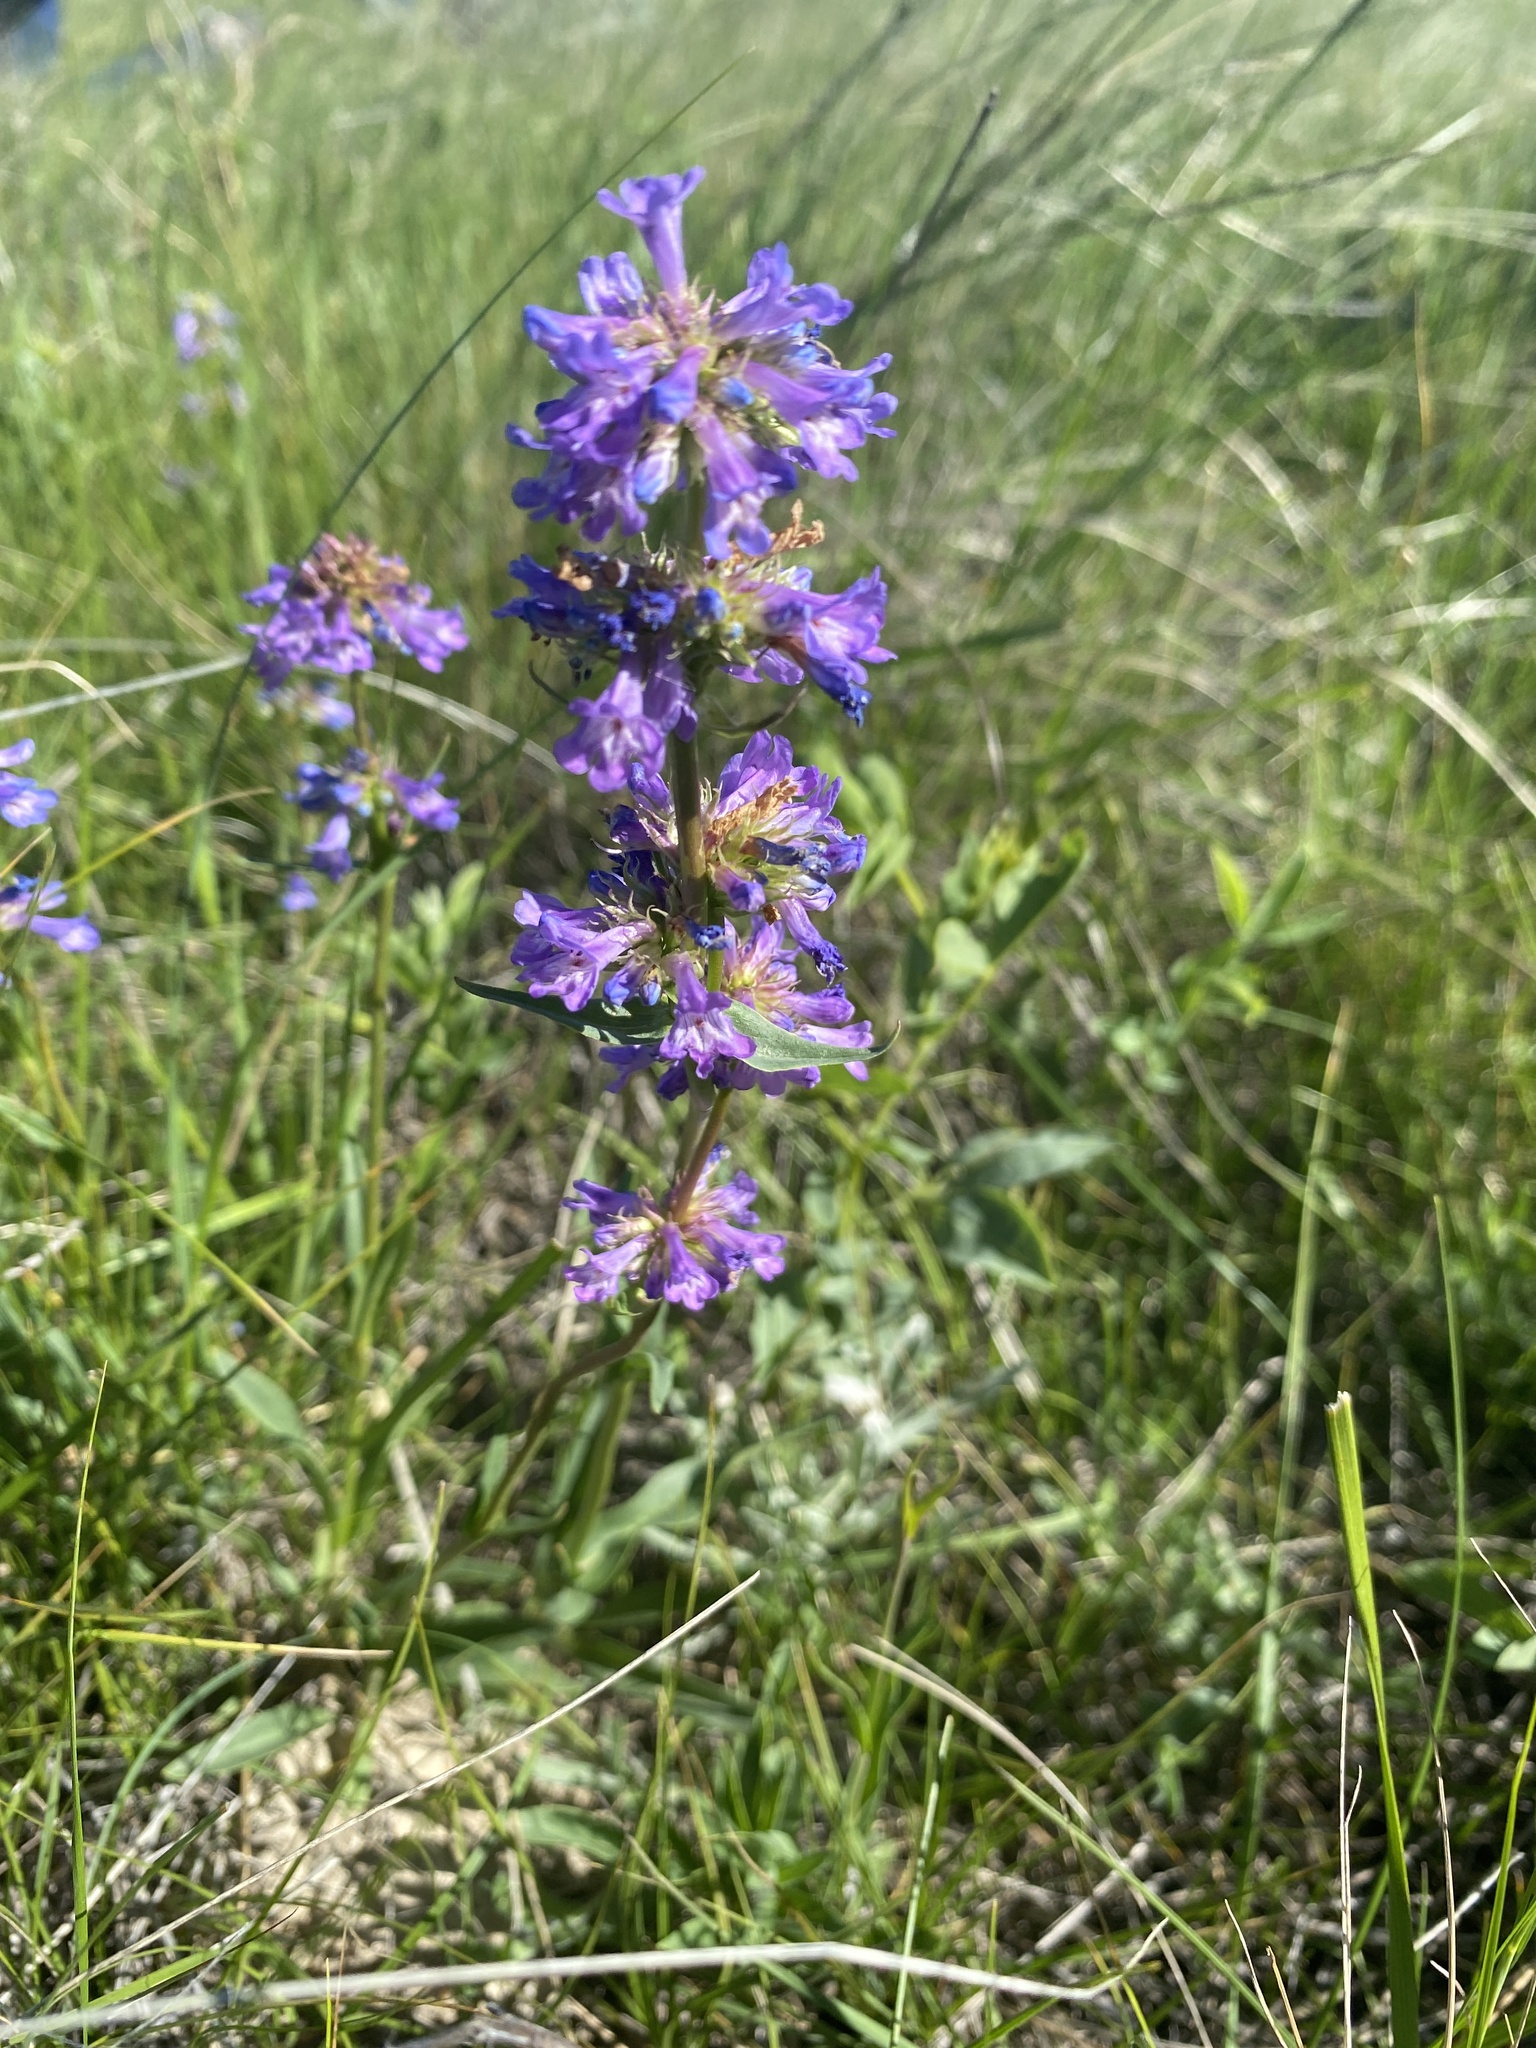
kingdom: Plantae
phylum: Tracheophyta
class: Magnoliopsida
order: Lamiales
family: Plantaginaceae
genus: Penstemon
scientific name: Penstemon procerus
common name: Small-flower penstemon
